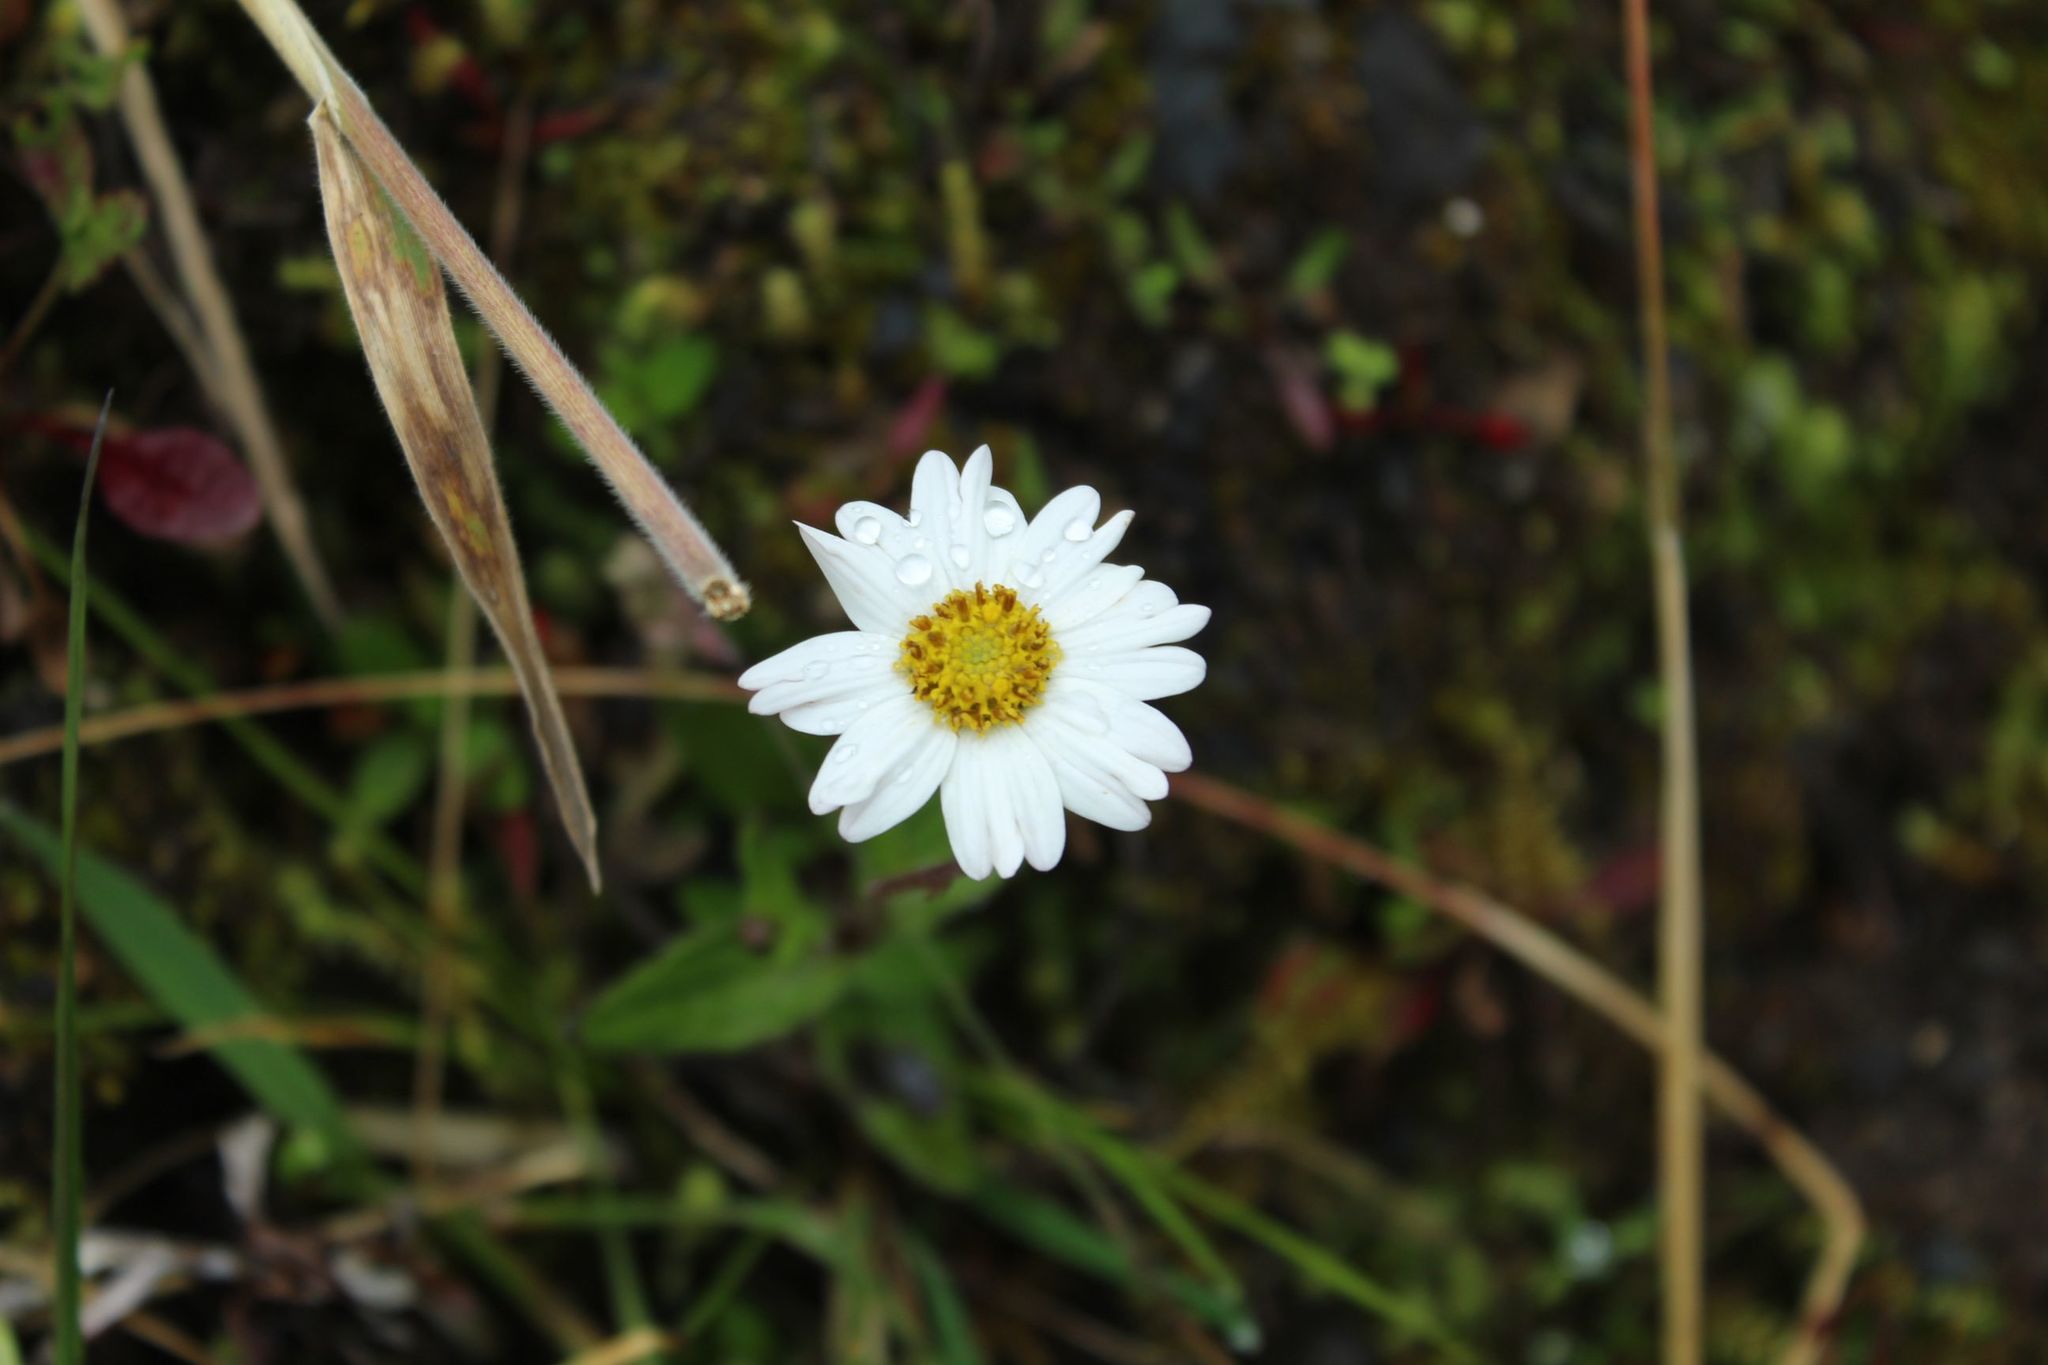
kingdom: Plantae
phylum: Tracheophyta
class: Magnoliopsida
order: Asterales
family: Asteraceae
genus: Sabazia
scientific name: Sabazia trianae
